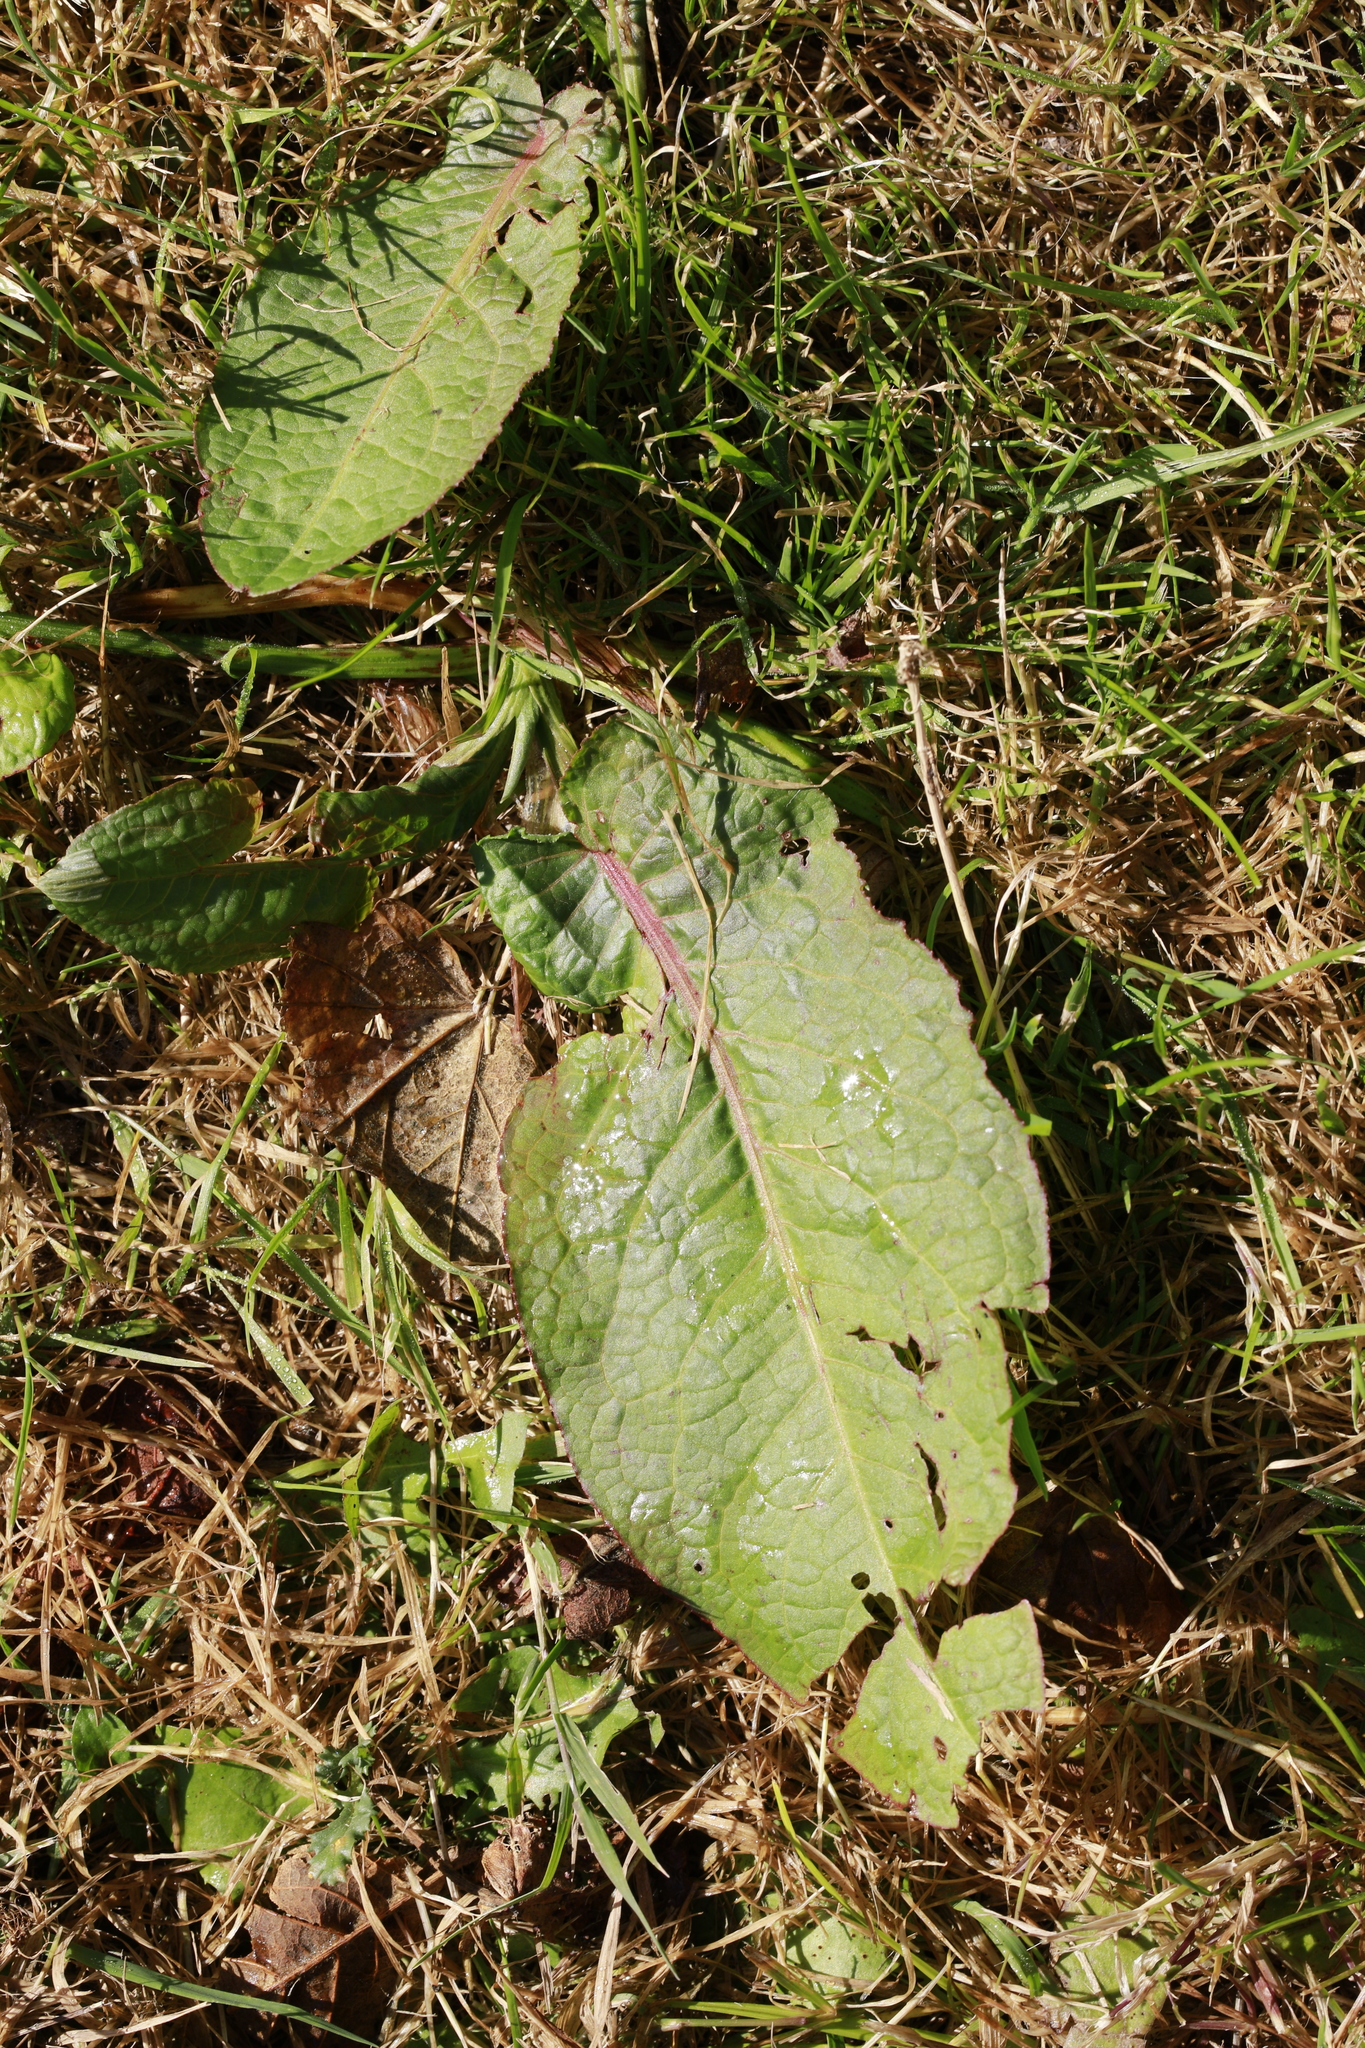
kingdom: Plantae
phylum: Tracheophyta
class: Magnoliopsida
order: Caryophyllales
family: Polygonaceae
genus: Rumex
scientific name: Rumex obtusifolius
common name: Bitter dock
